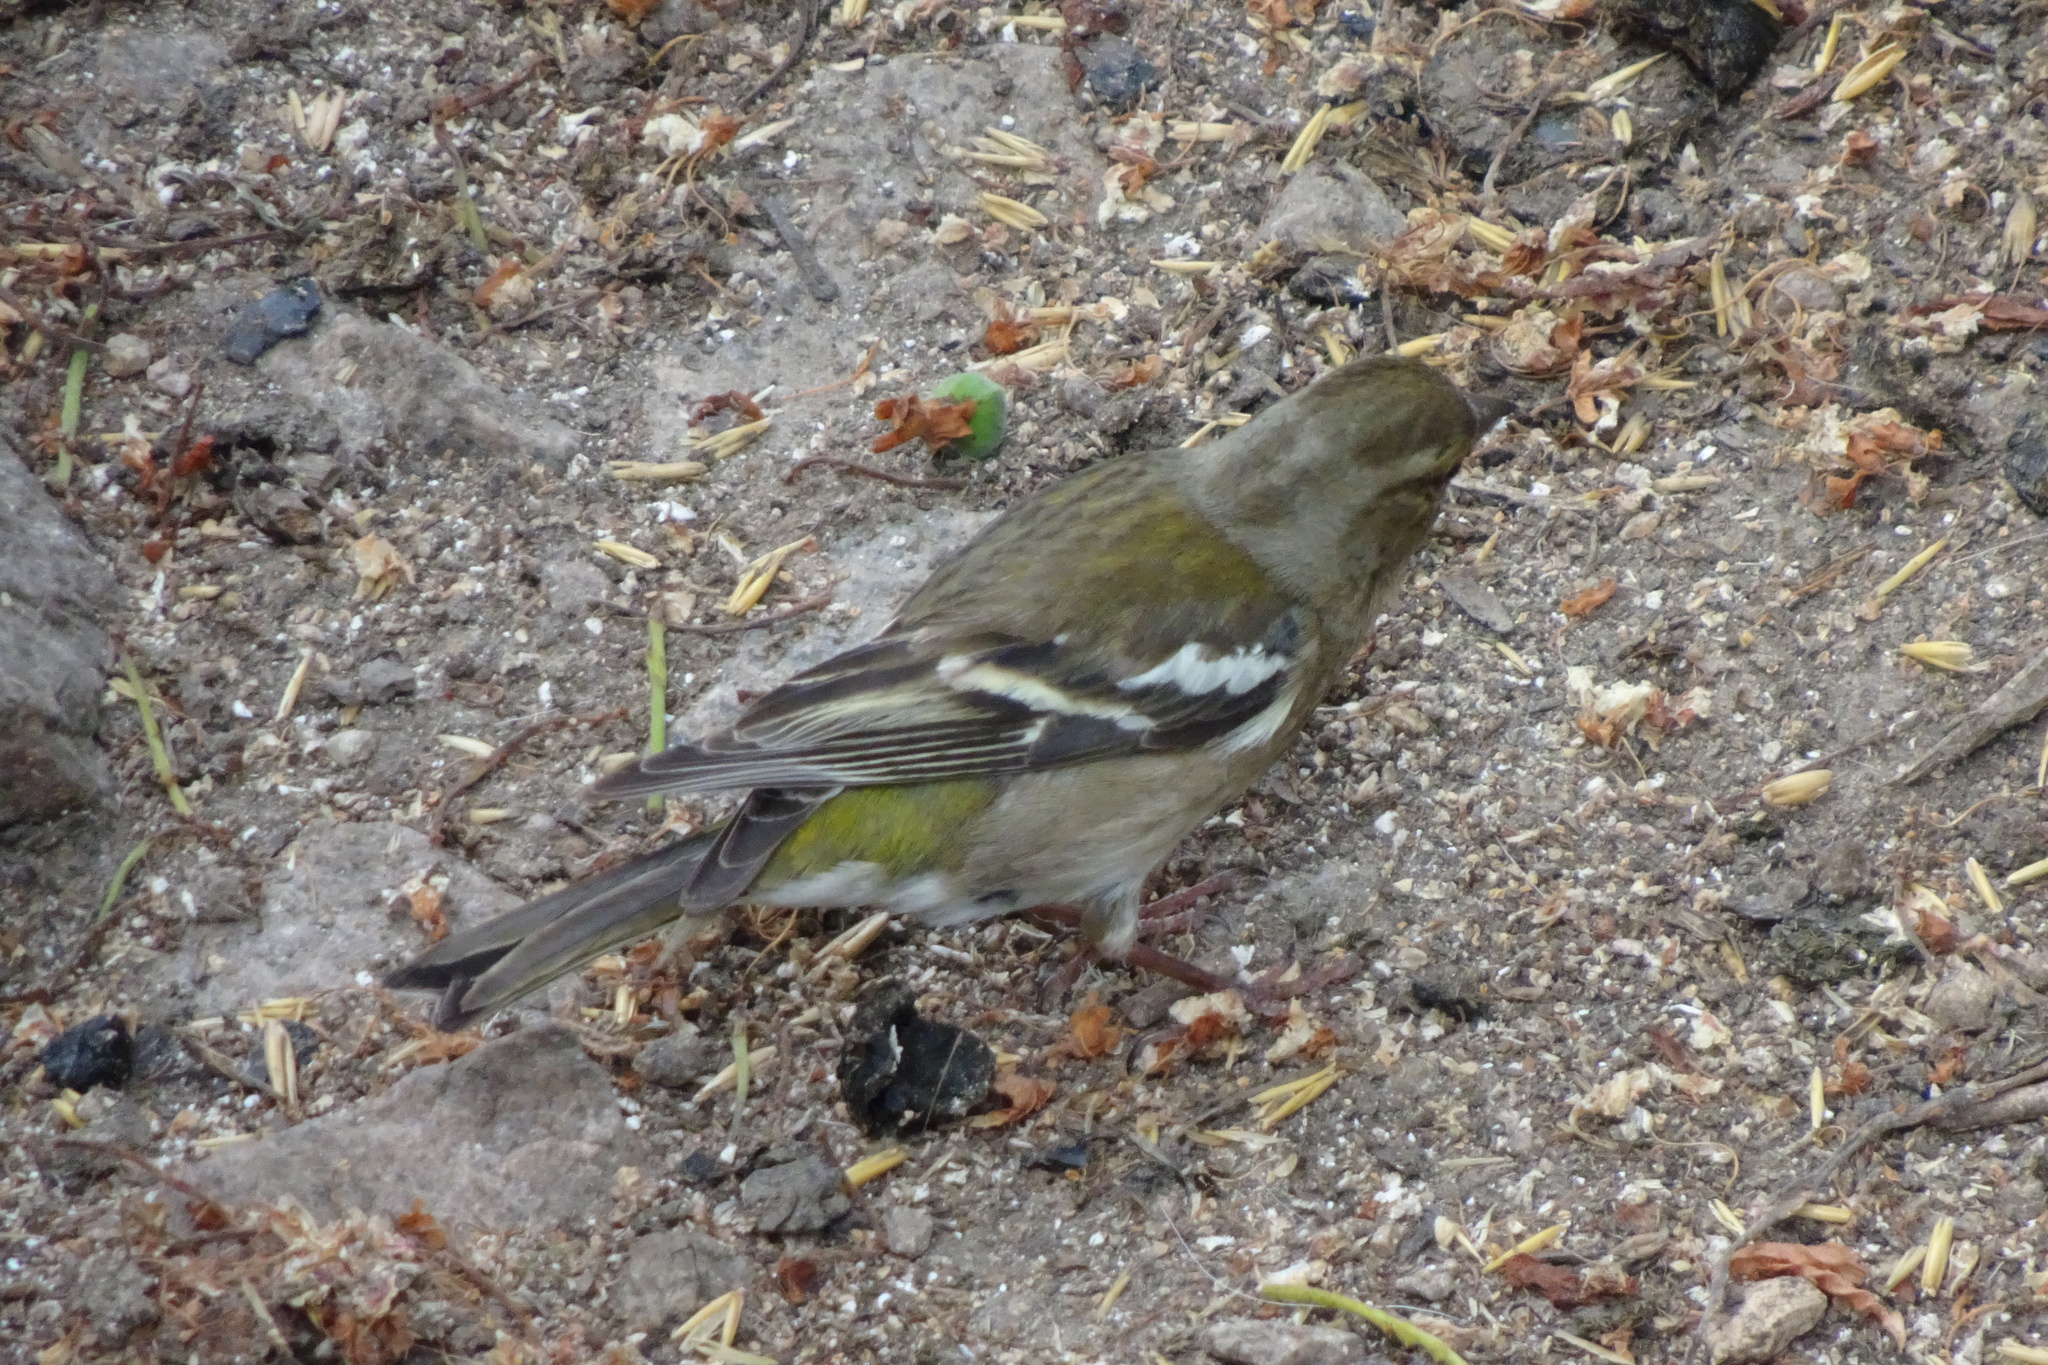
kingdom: Animalia
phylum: Chordata
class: Aves
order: Passeriformes
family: Fringillidae
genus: Fringilla
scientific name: Fringilla coelebs
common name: Common chaffinch
